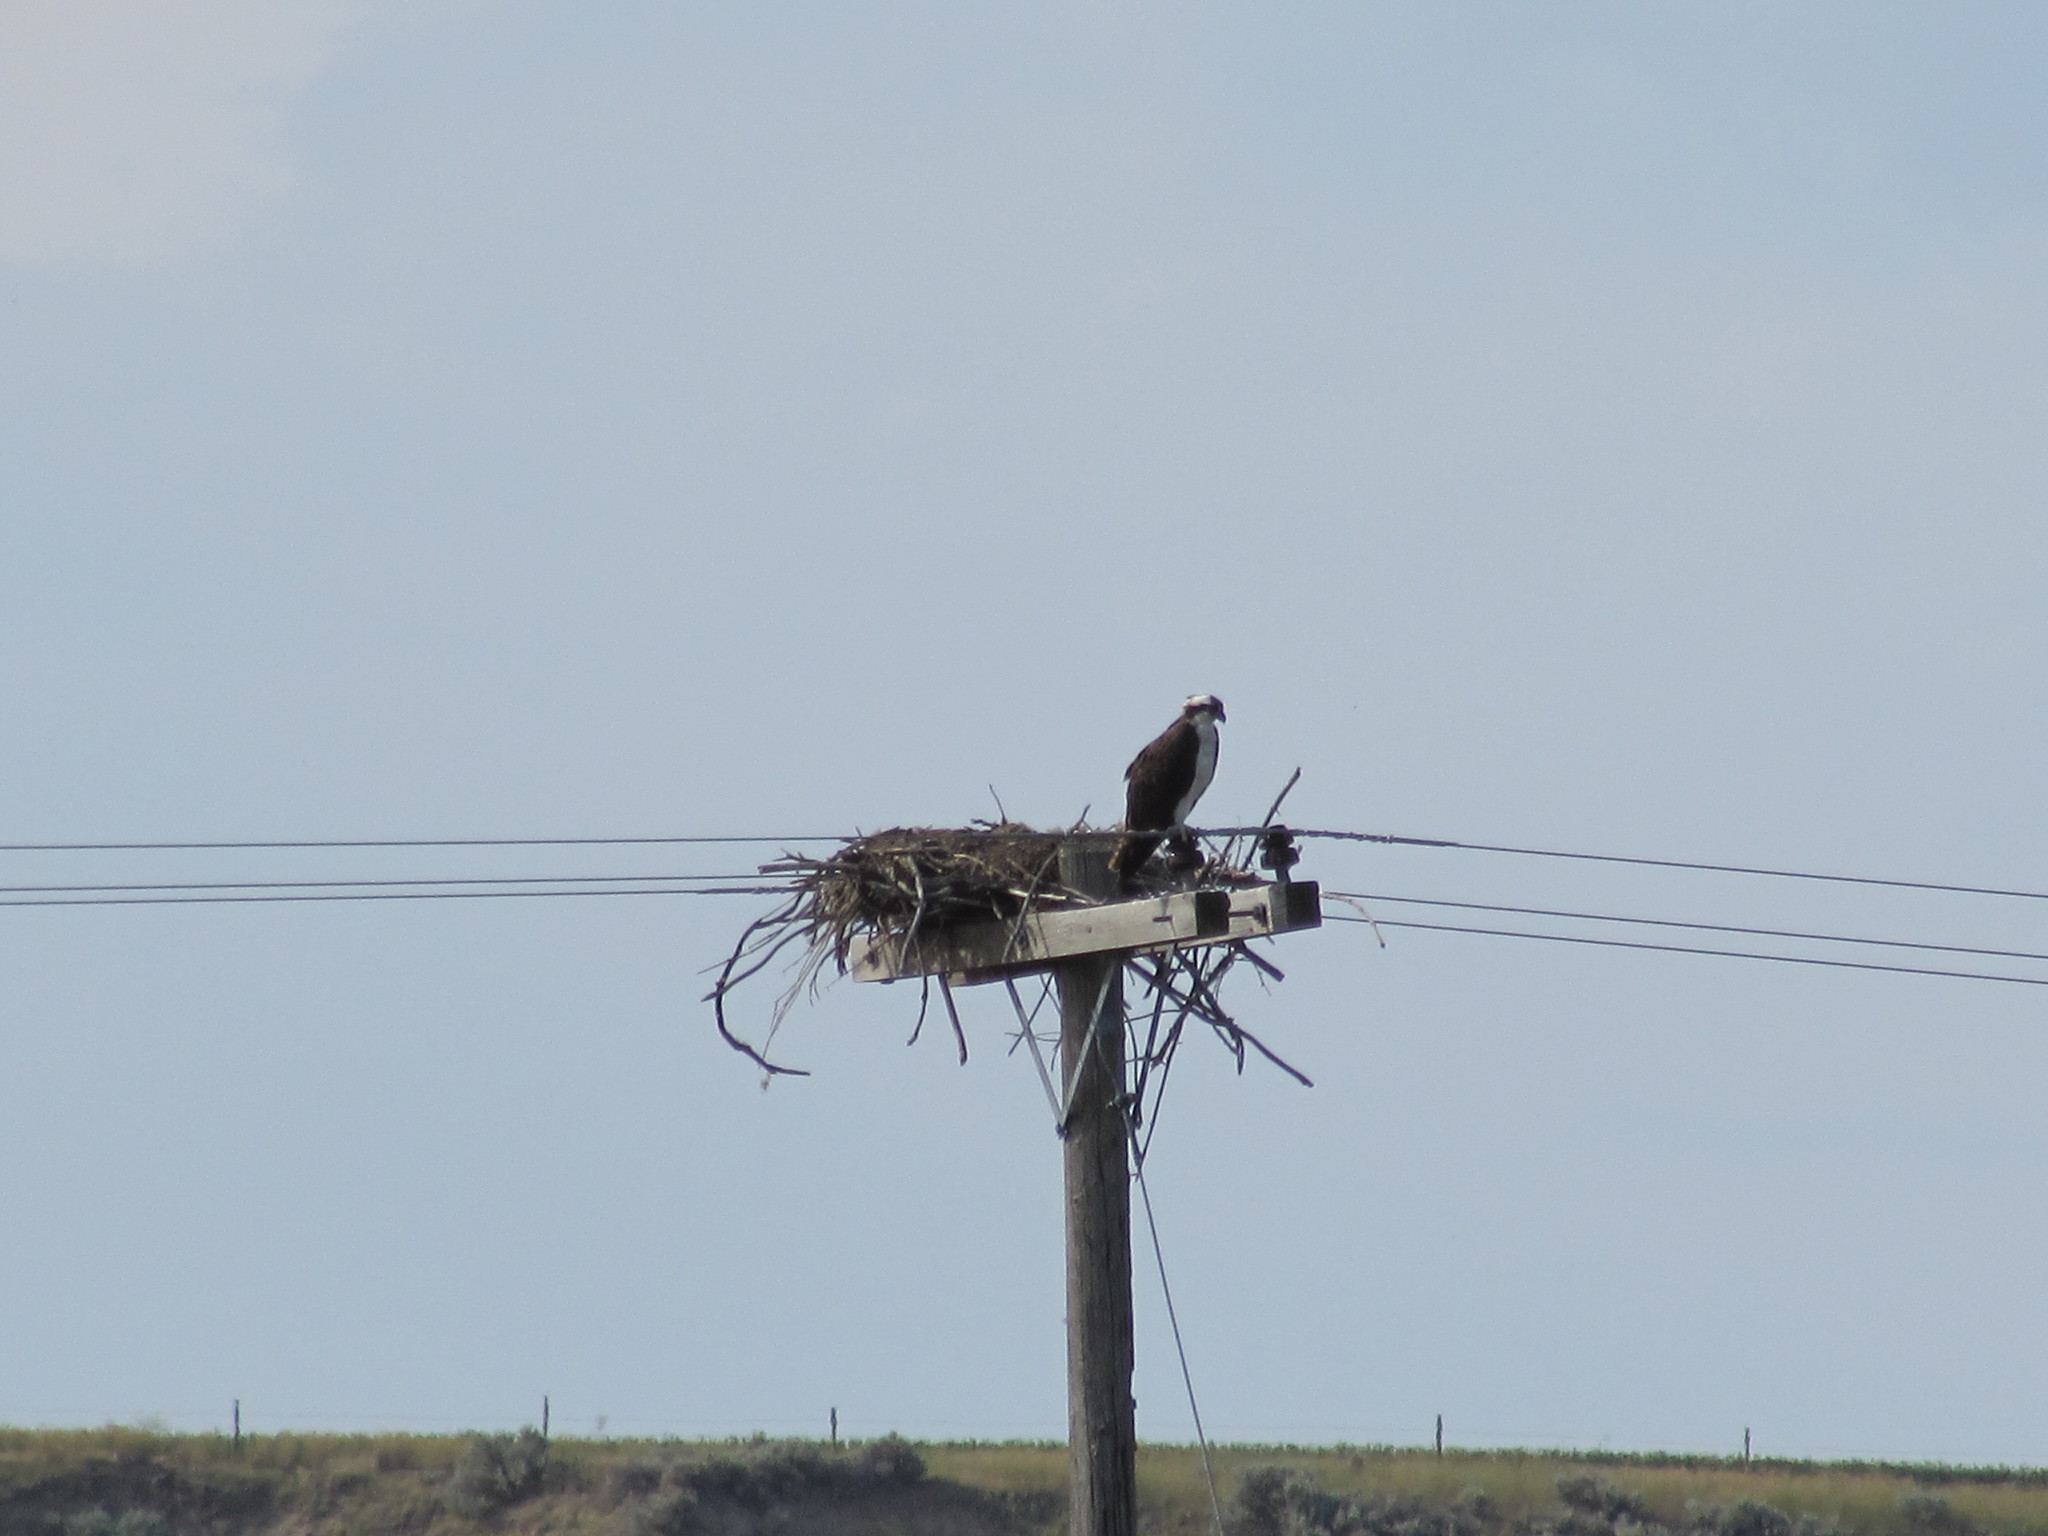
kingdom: Animalia
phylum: Chordata
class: Aves
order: Accipitriformes
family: Pandionidae
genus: Pandion
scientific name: Pandion haliaetus
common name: Osprey
